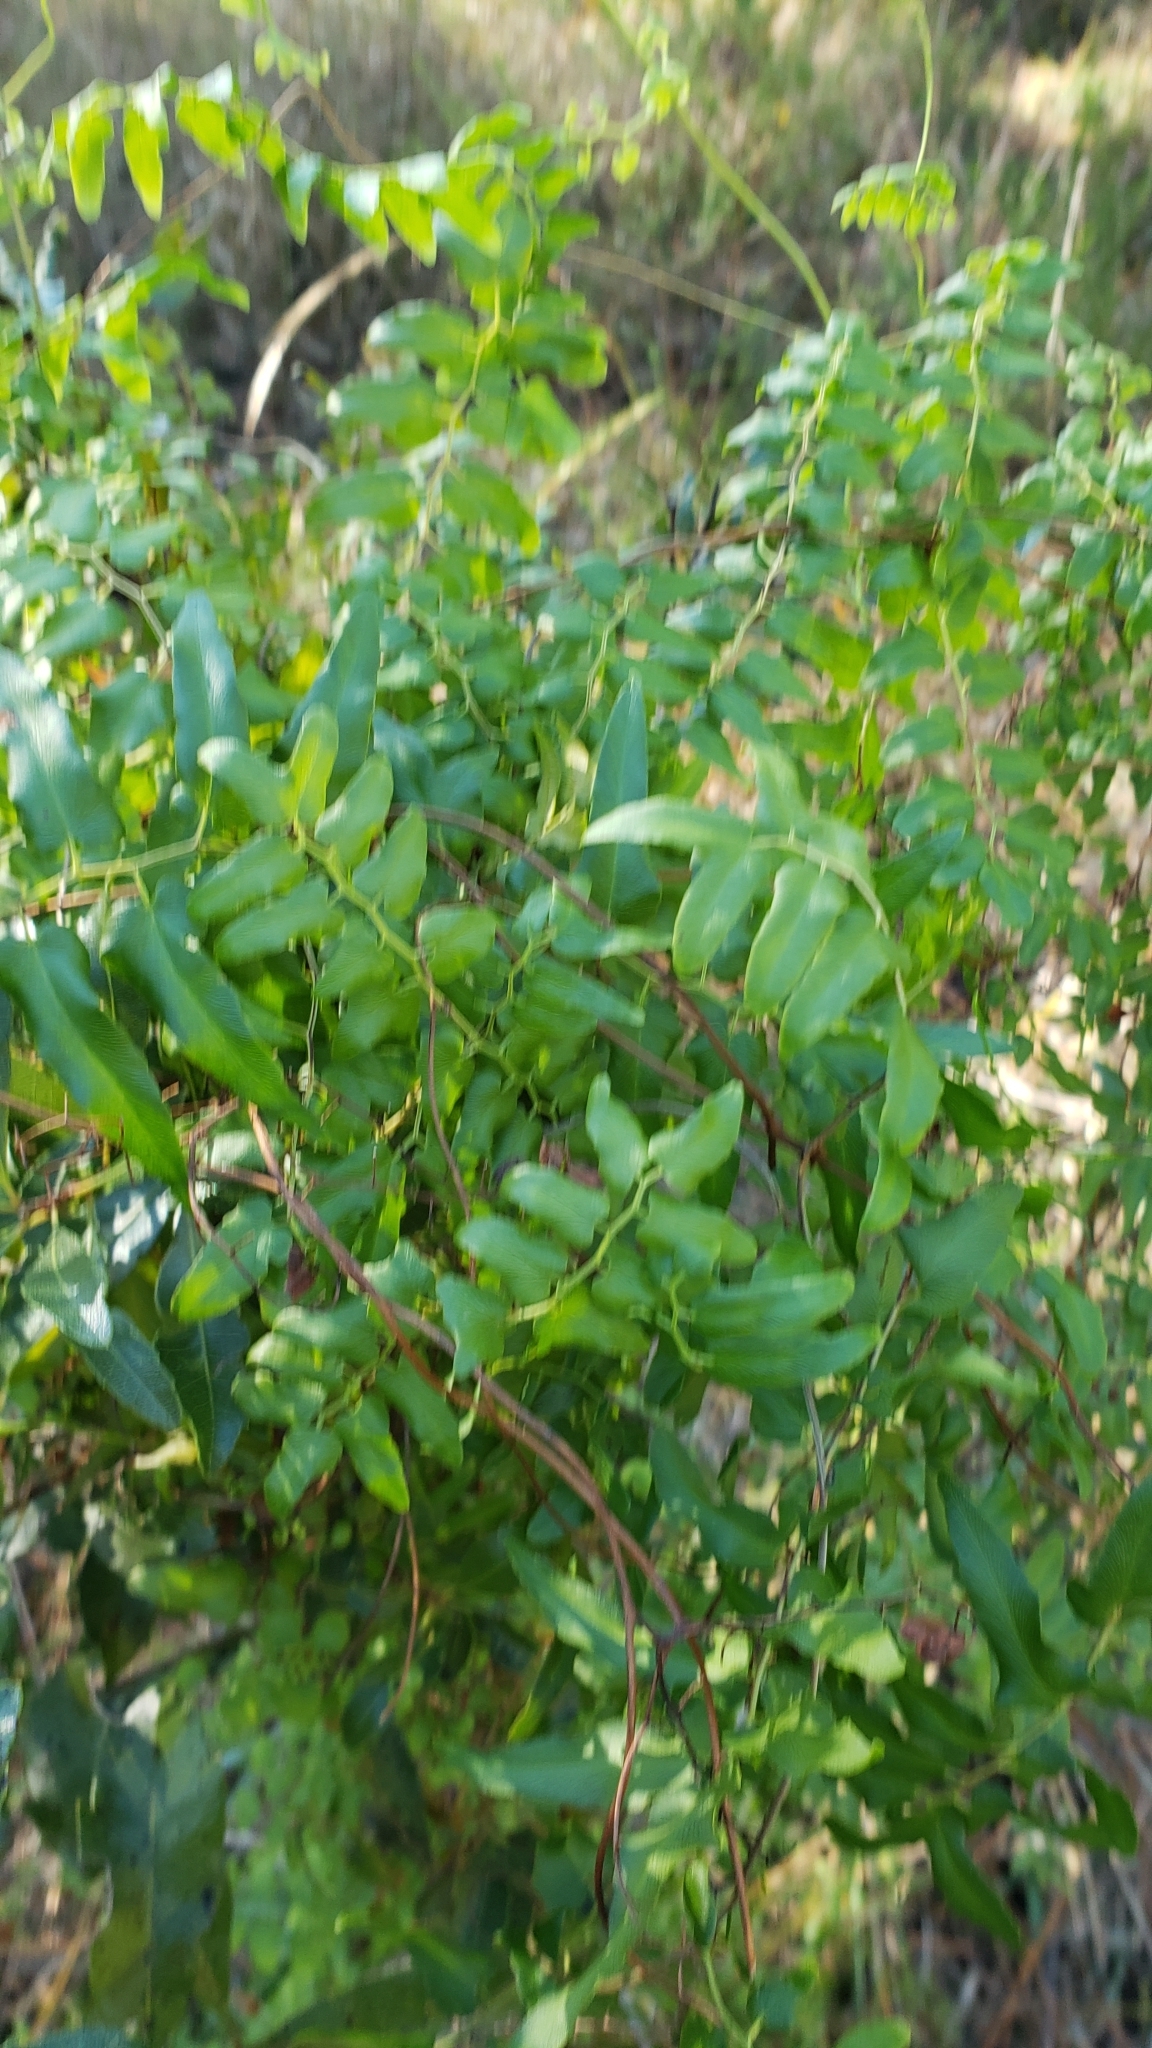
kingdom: Plantae
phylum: Tracheophyta
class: Polypodiopsida
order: Schizaeales
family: Lygodiaceae
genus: Lygodium
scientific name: Lygodium microphyllum
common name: Small-leaf climbing fern
